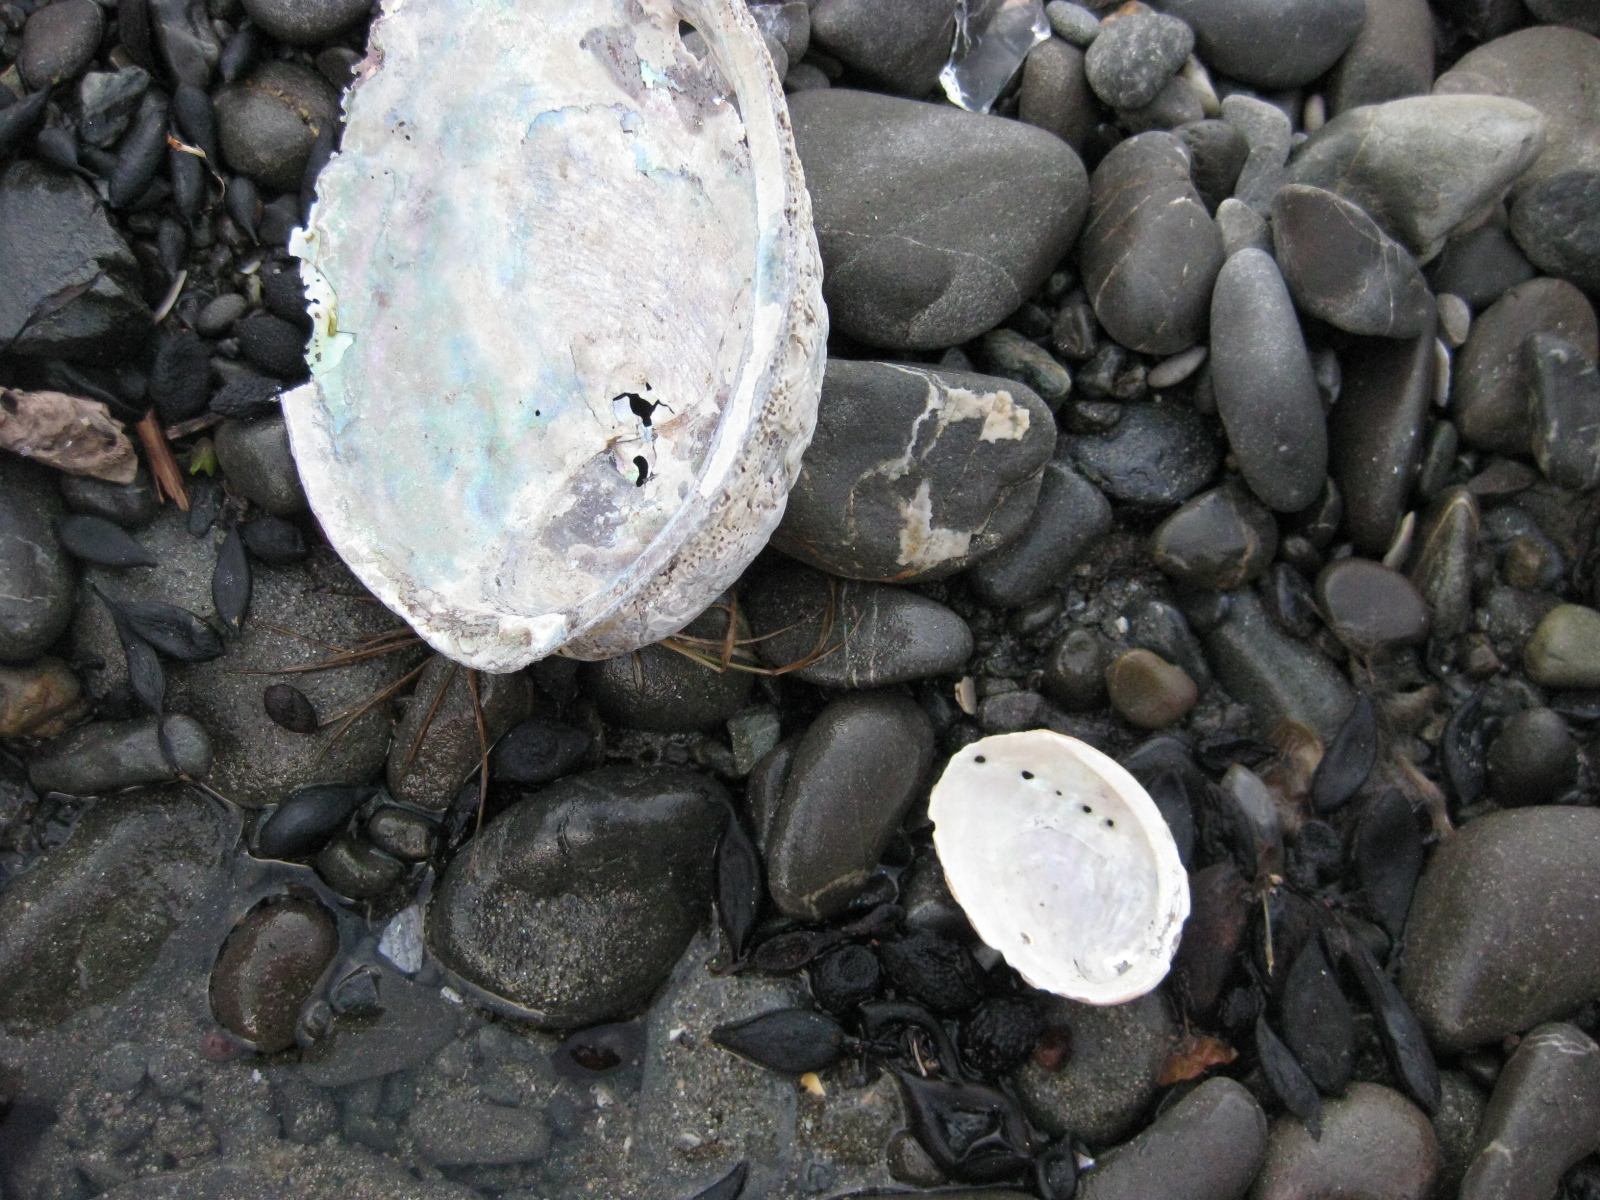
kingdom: Animalia
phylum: Mollusca
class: Gastropoda
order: Lepetellida
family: Haliotidae
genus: Haliotis
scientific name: Haliotis iris
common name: Abalone
